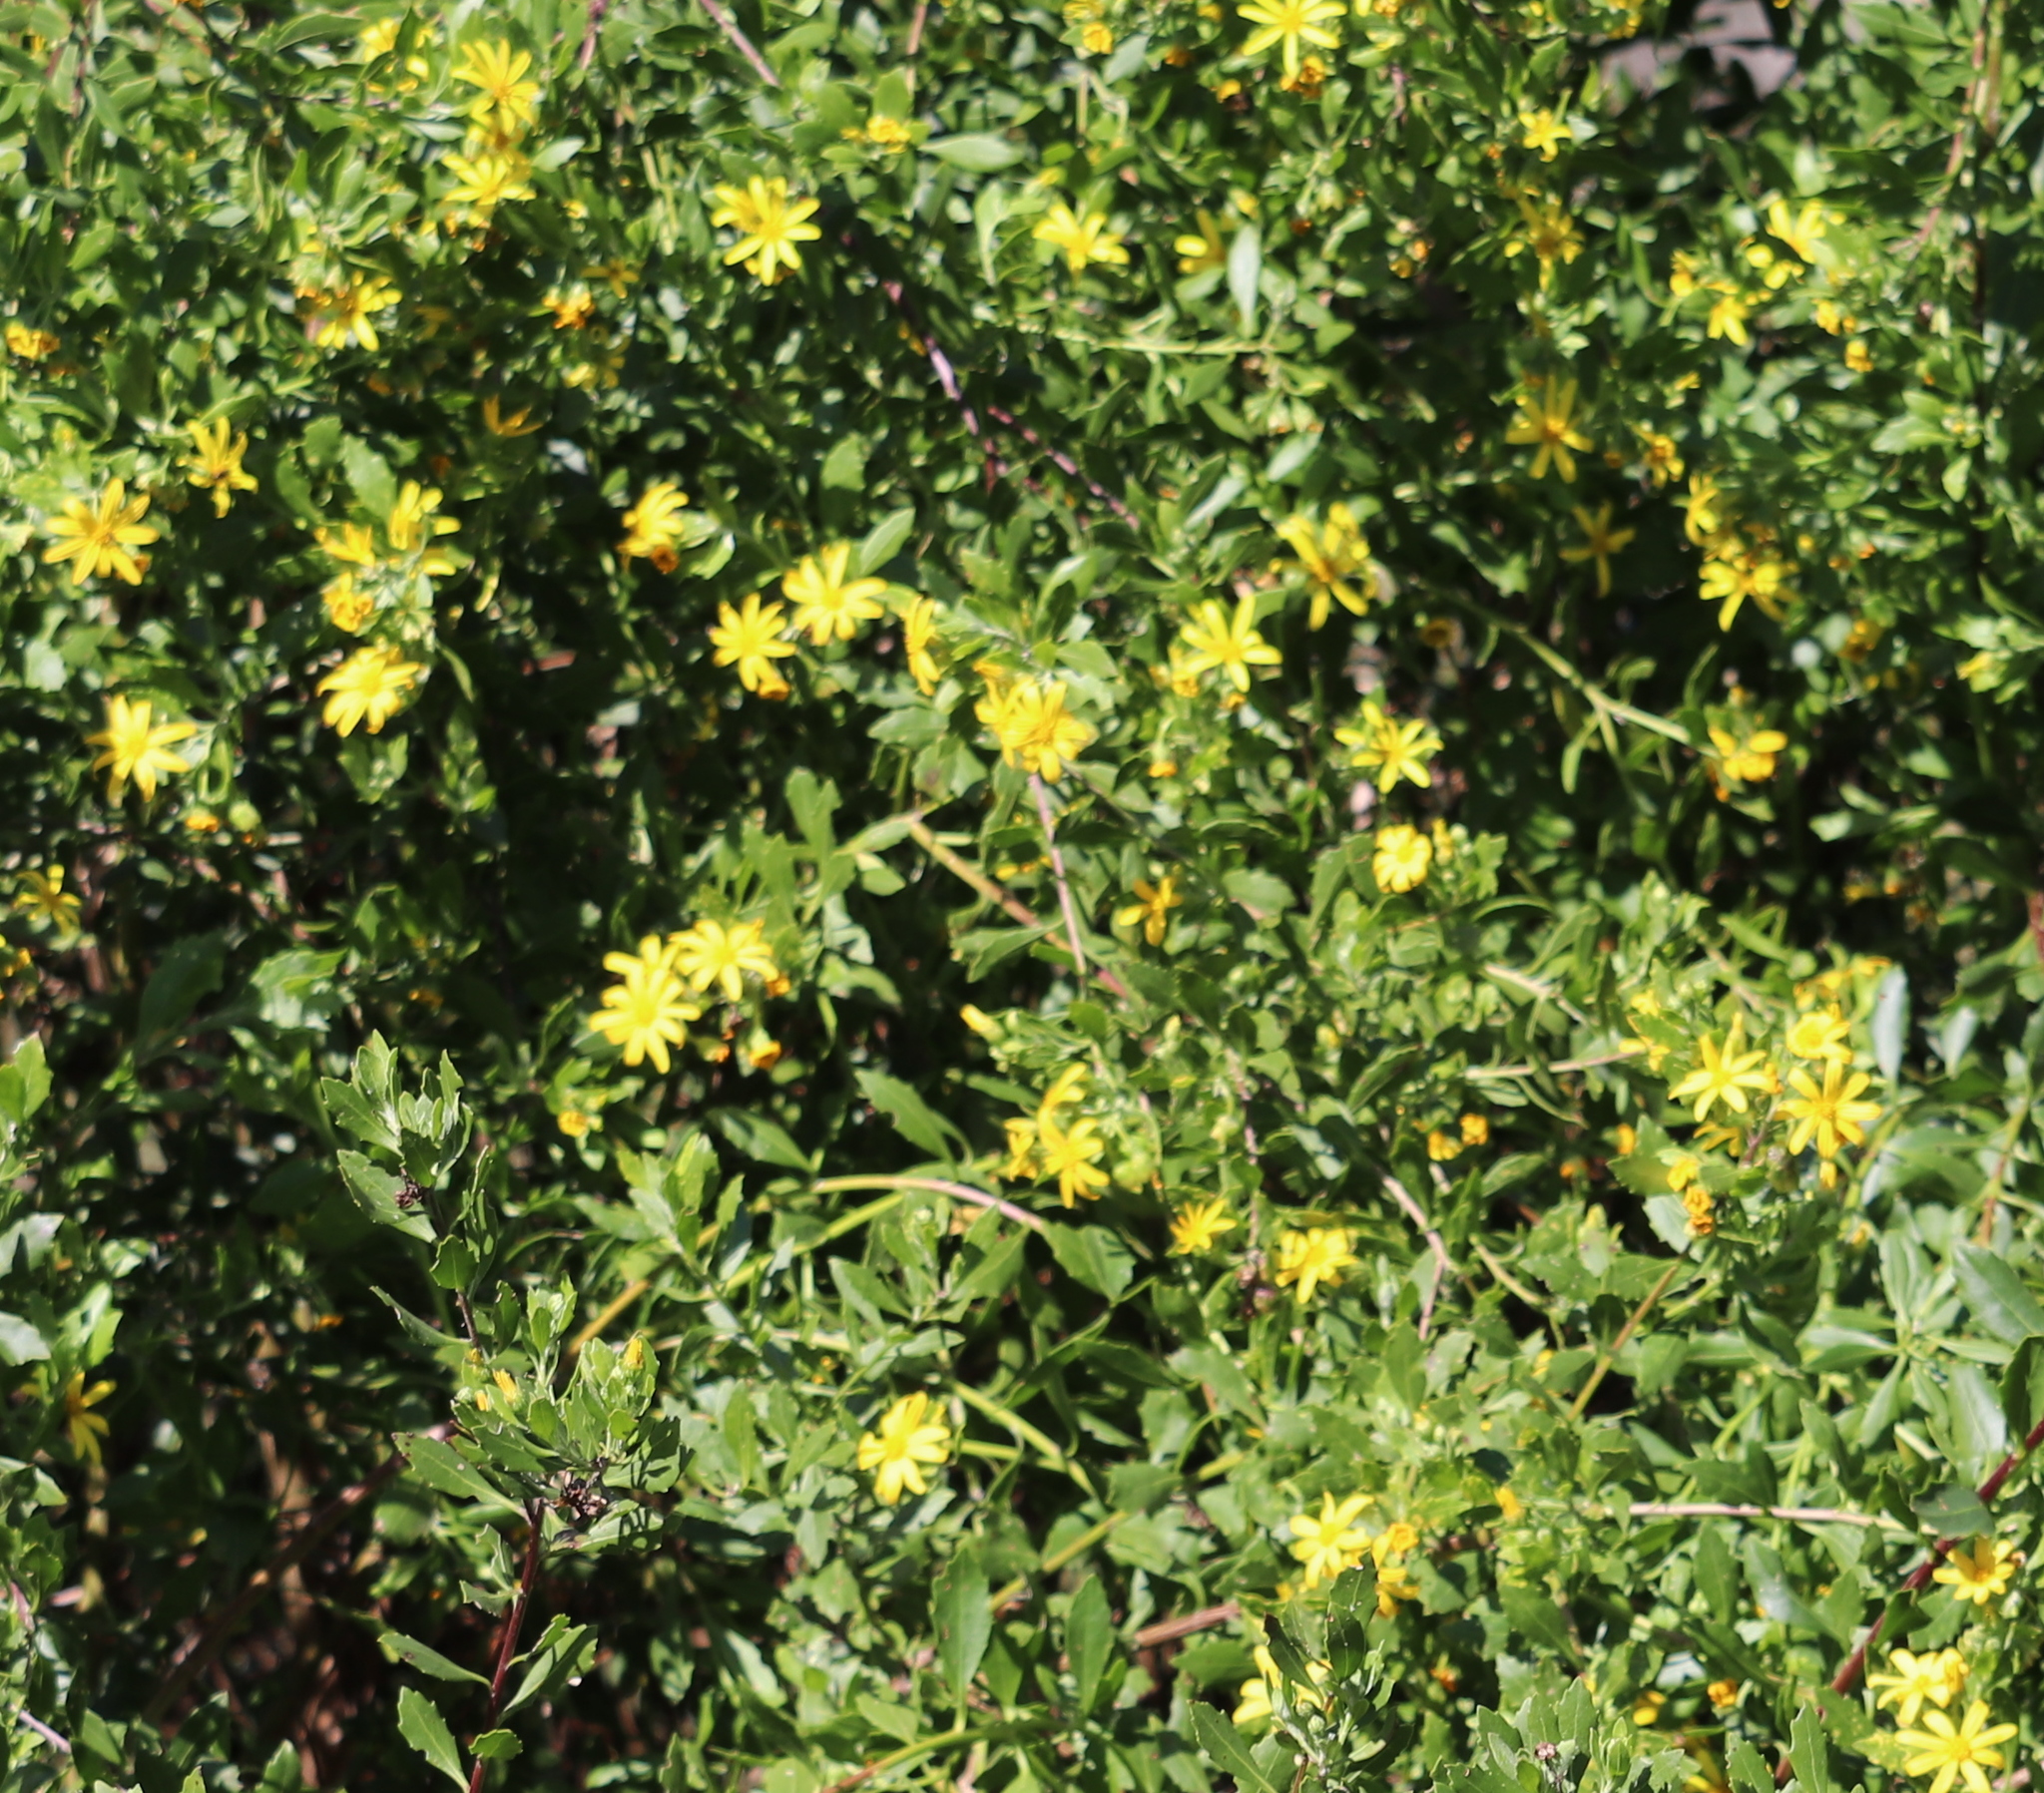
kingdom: Plantae
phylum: Tracheophyta
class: Magnoliopsida
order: Asterales
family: Asteraceae
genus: Osteospermum
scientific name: Osteospermum moniliferum
